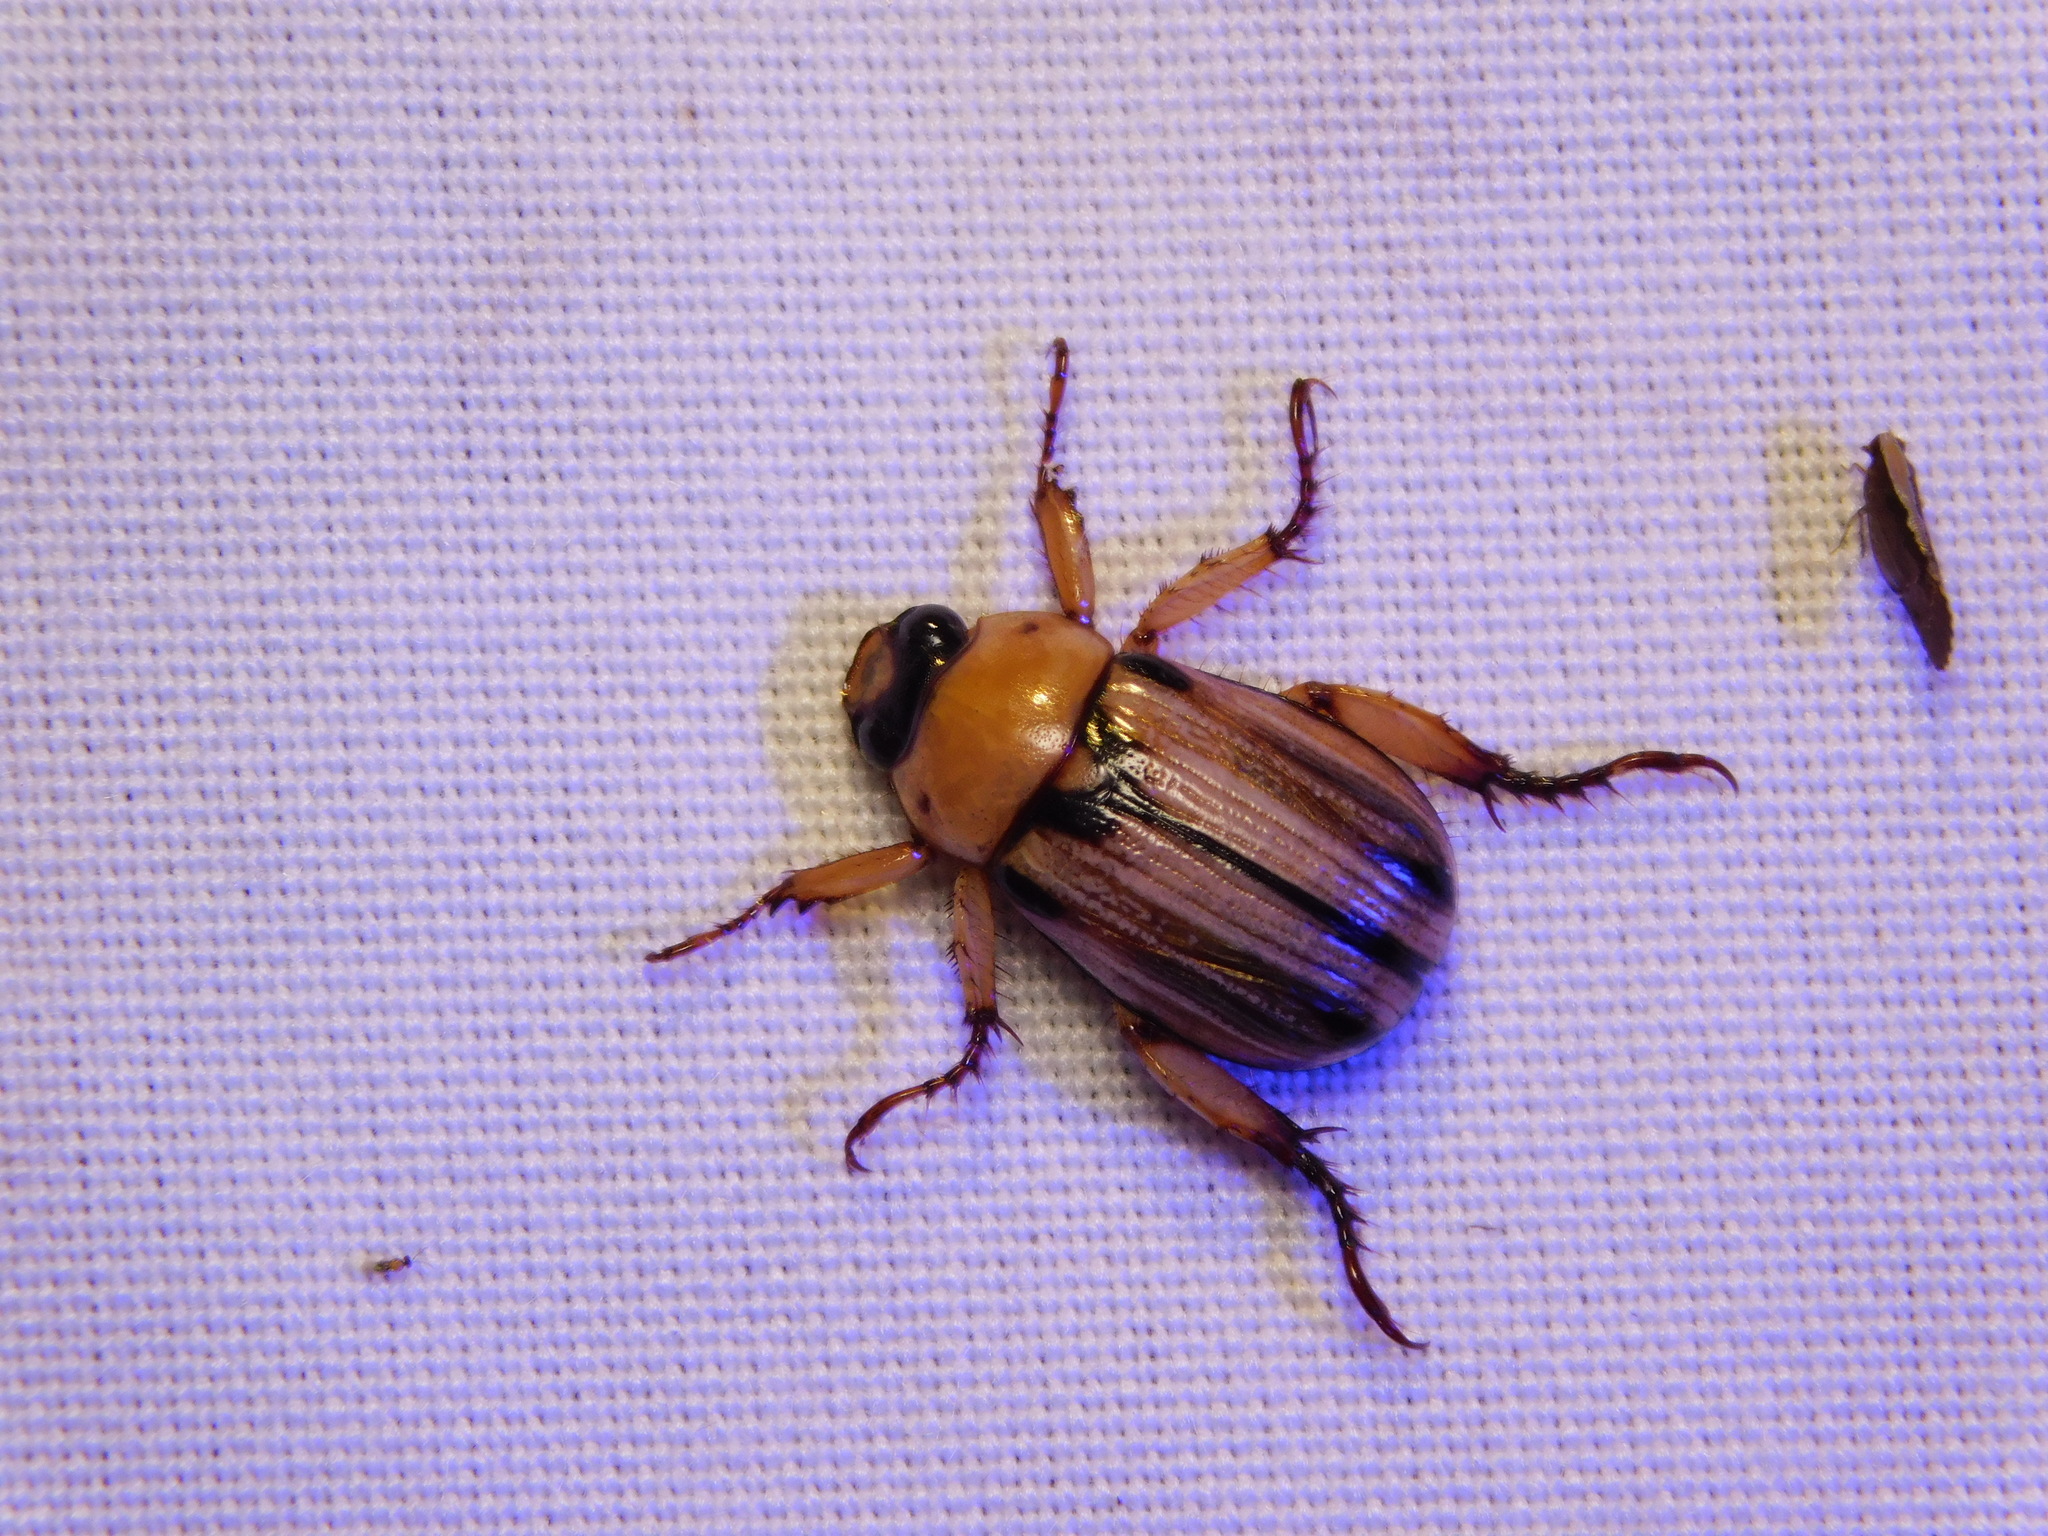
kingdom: Animalia
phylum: Arthropoda
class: Insecta
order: Coleoptera
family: Scarabaeidae
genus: Anomala
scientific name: Anomala communis
